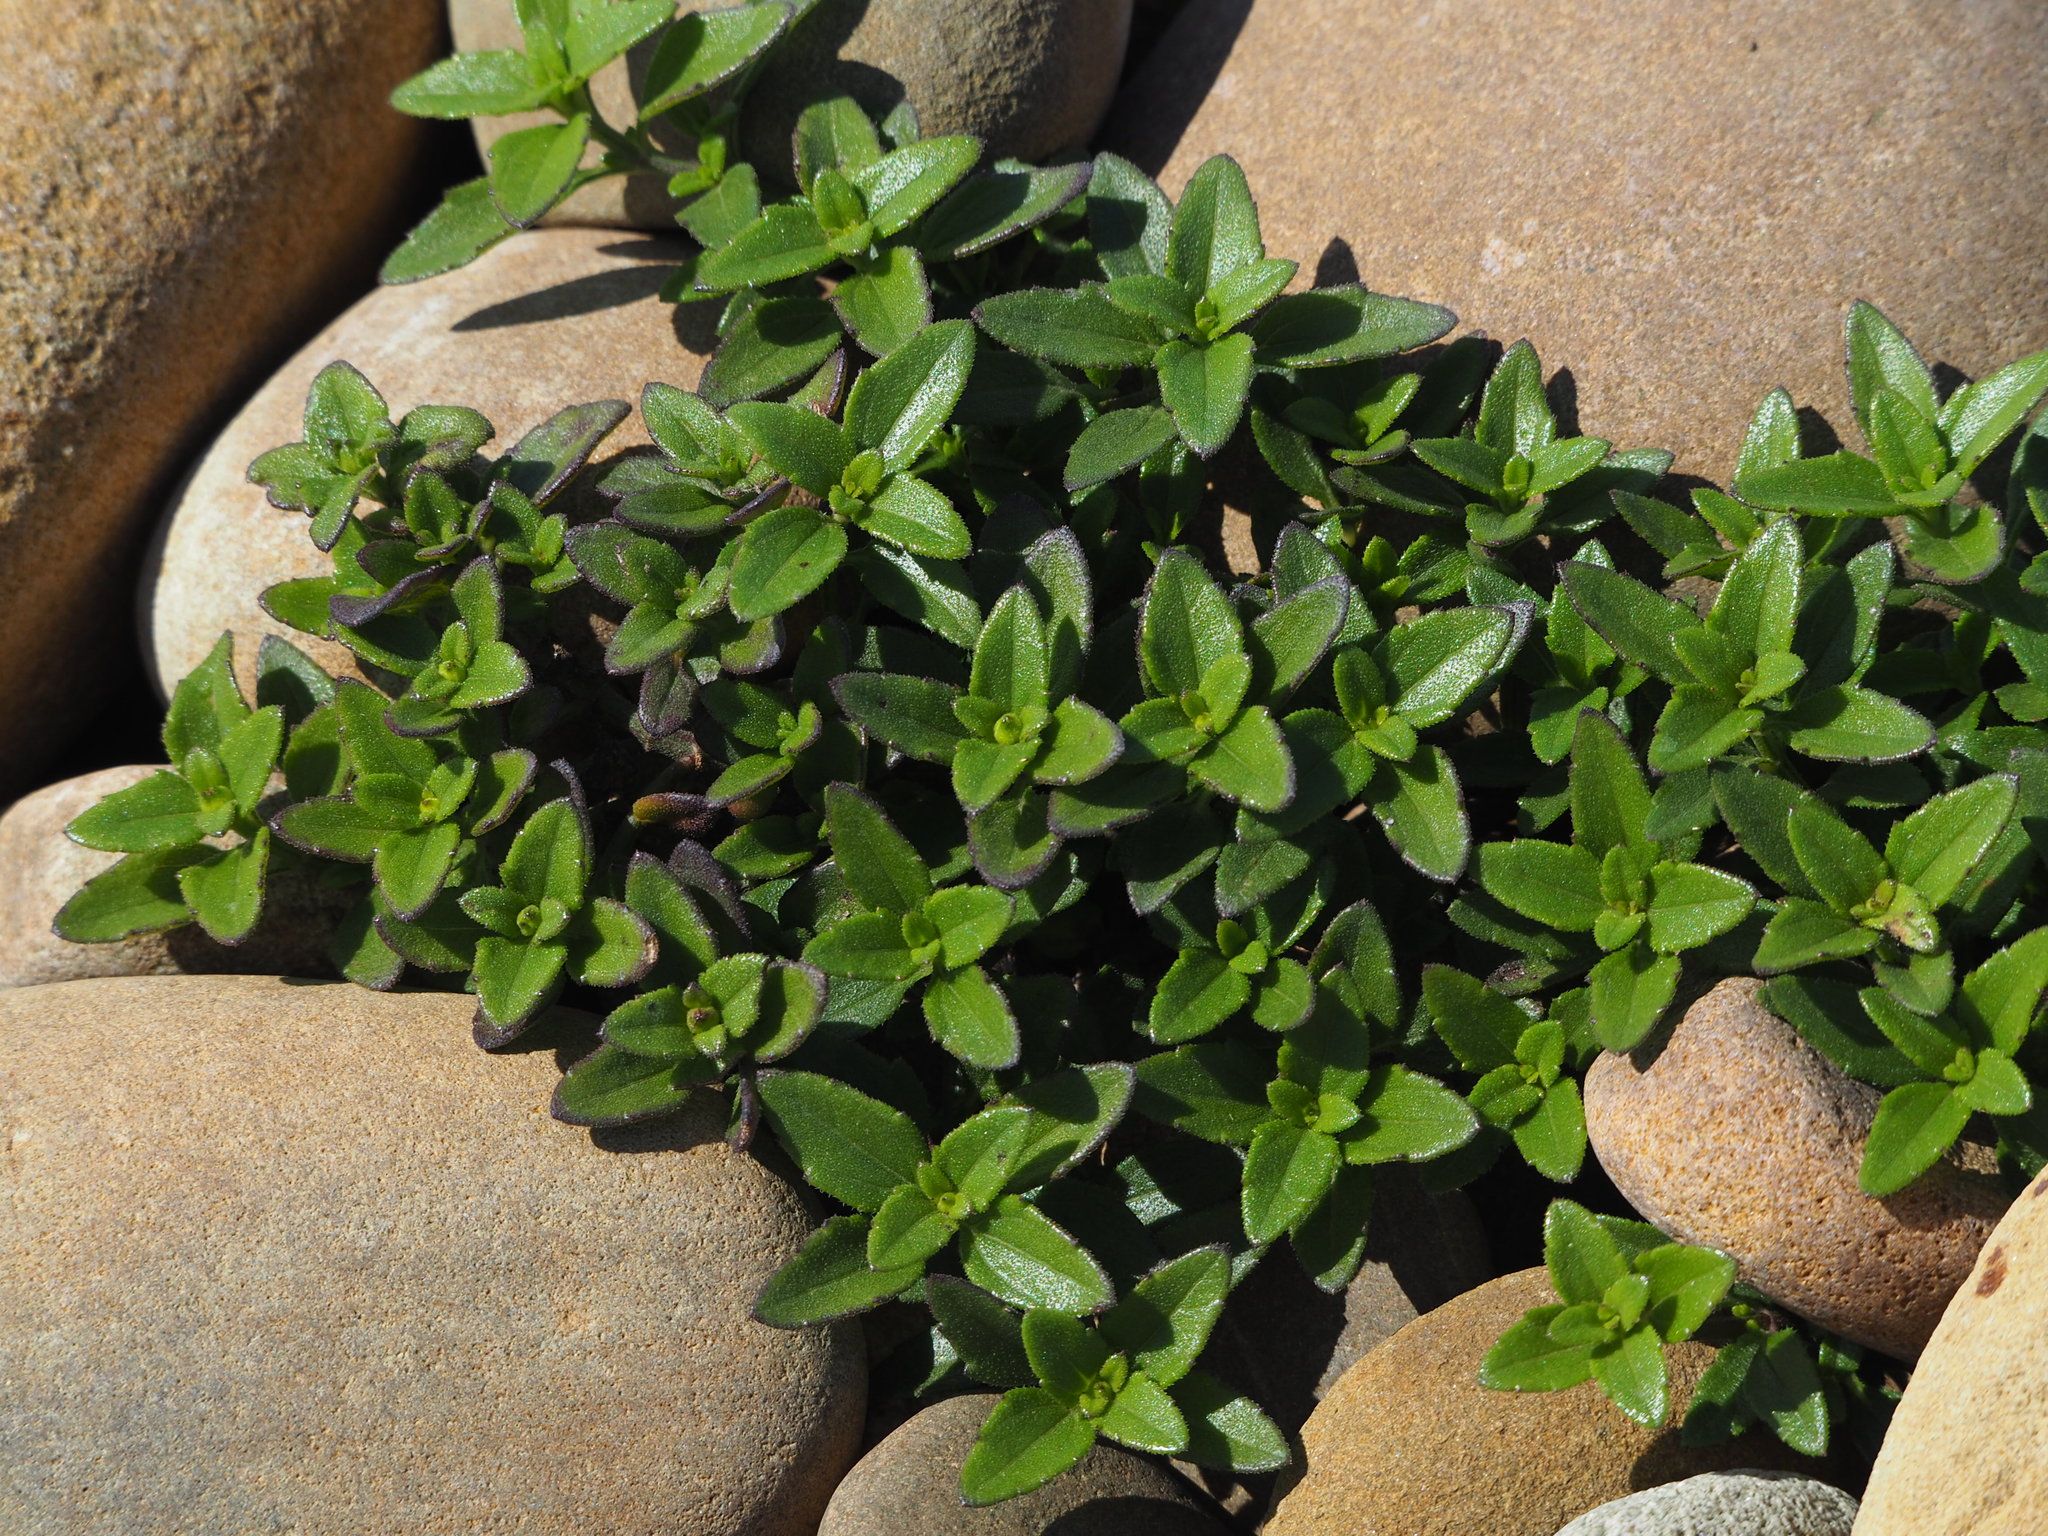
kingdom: Plantae
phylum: Tracheophyta
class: Magnoliopsida
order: Asterales
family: Asteraceae
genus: Melanthera
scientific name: Melanthera prostrata
